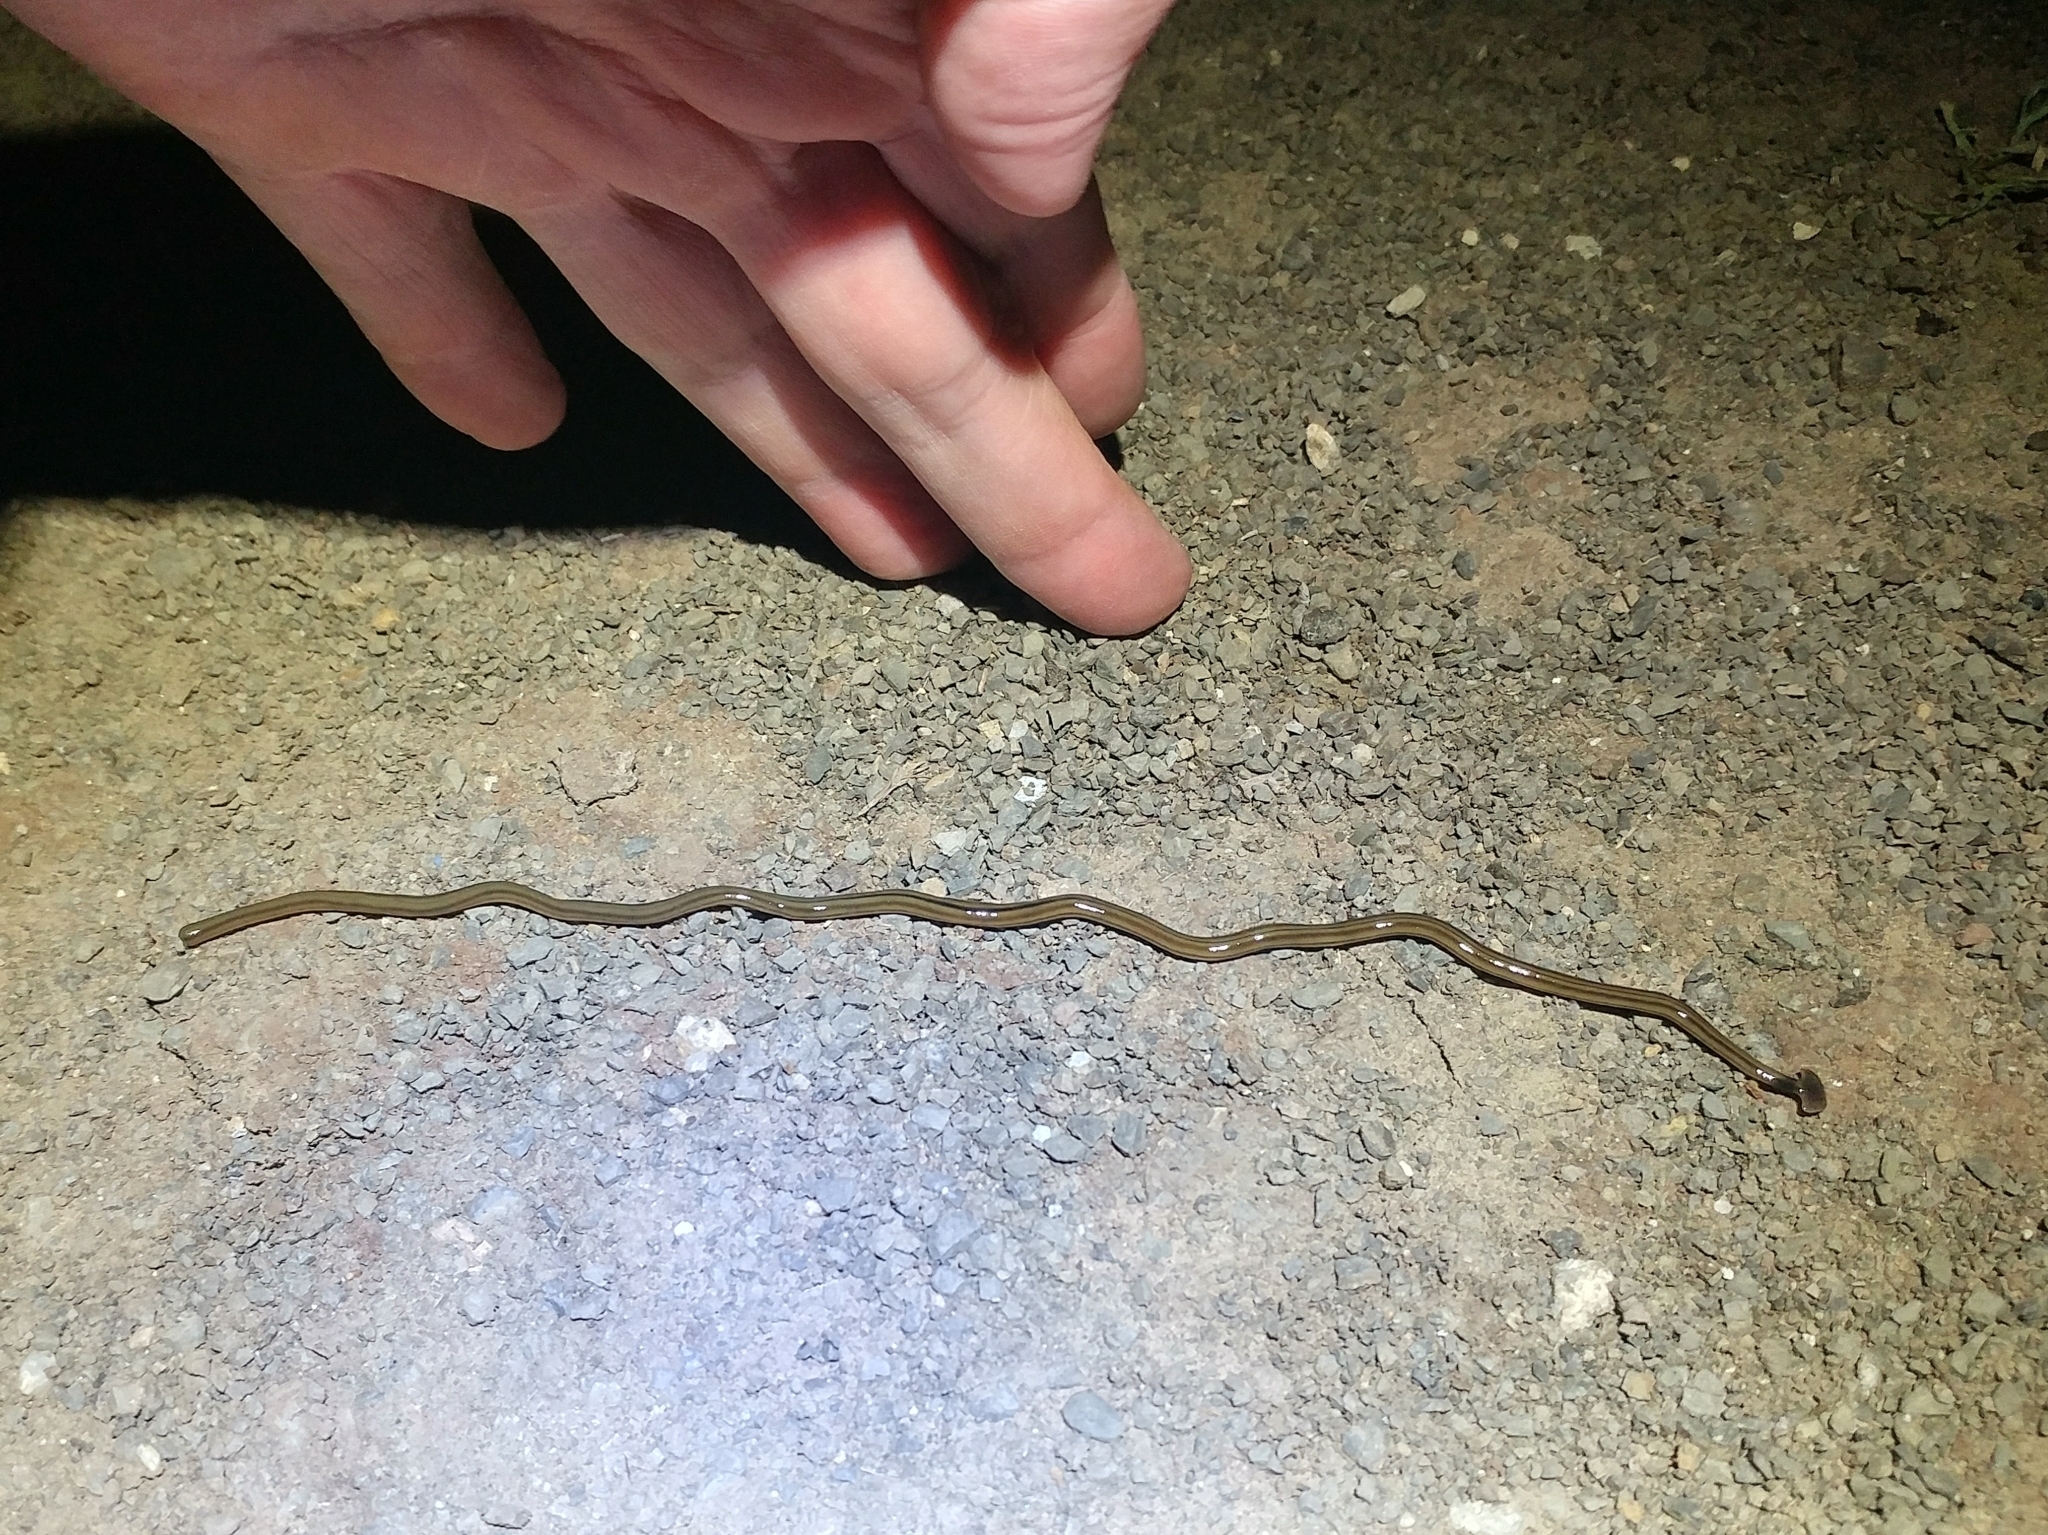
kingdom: Animalia
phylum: Platyhelminthes
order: Tricladida
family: Geoplanidae
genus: Bipalium
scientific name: Bipalium kewense
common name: Hammerhead flatworm
